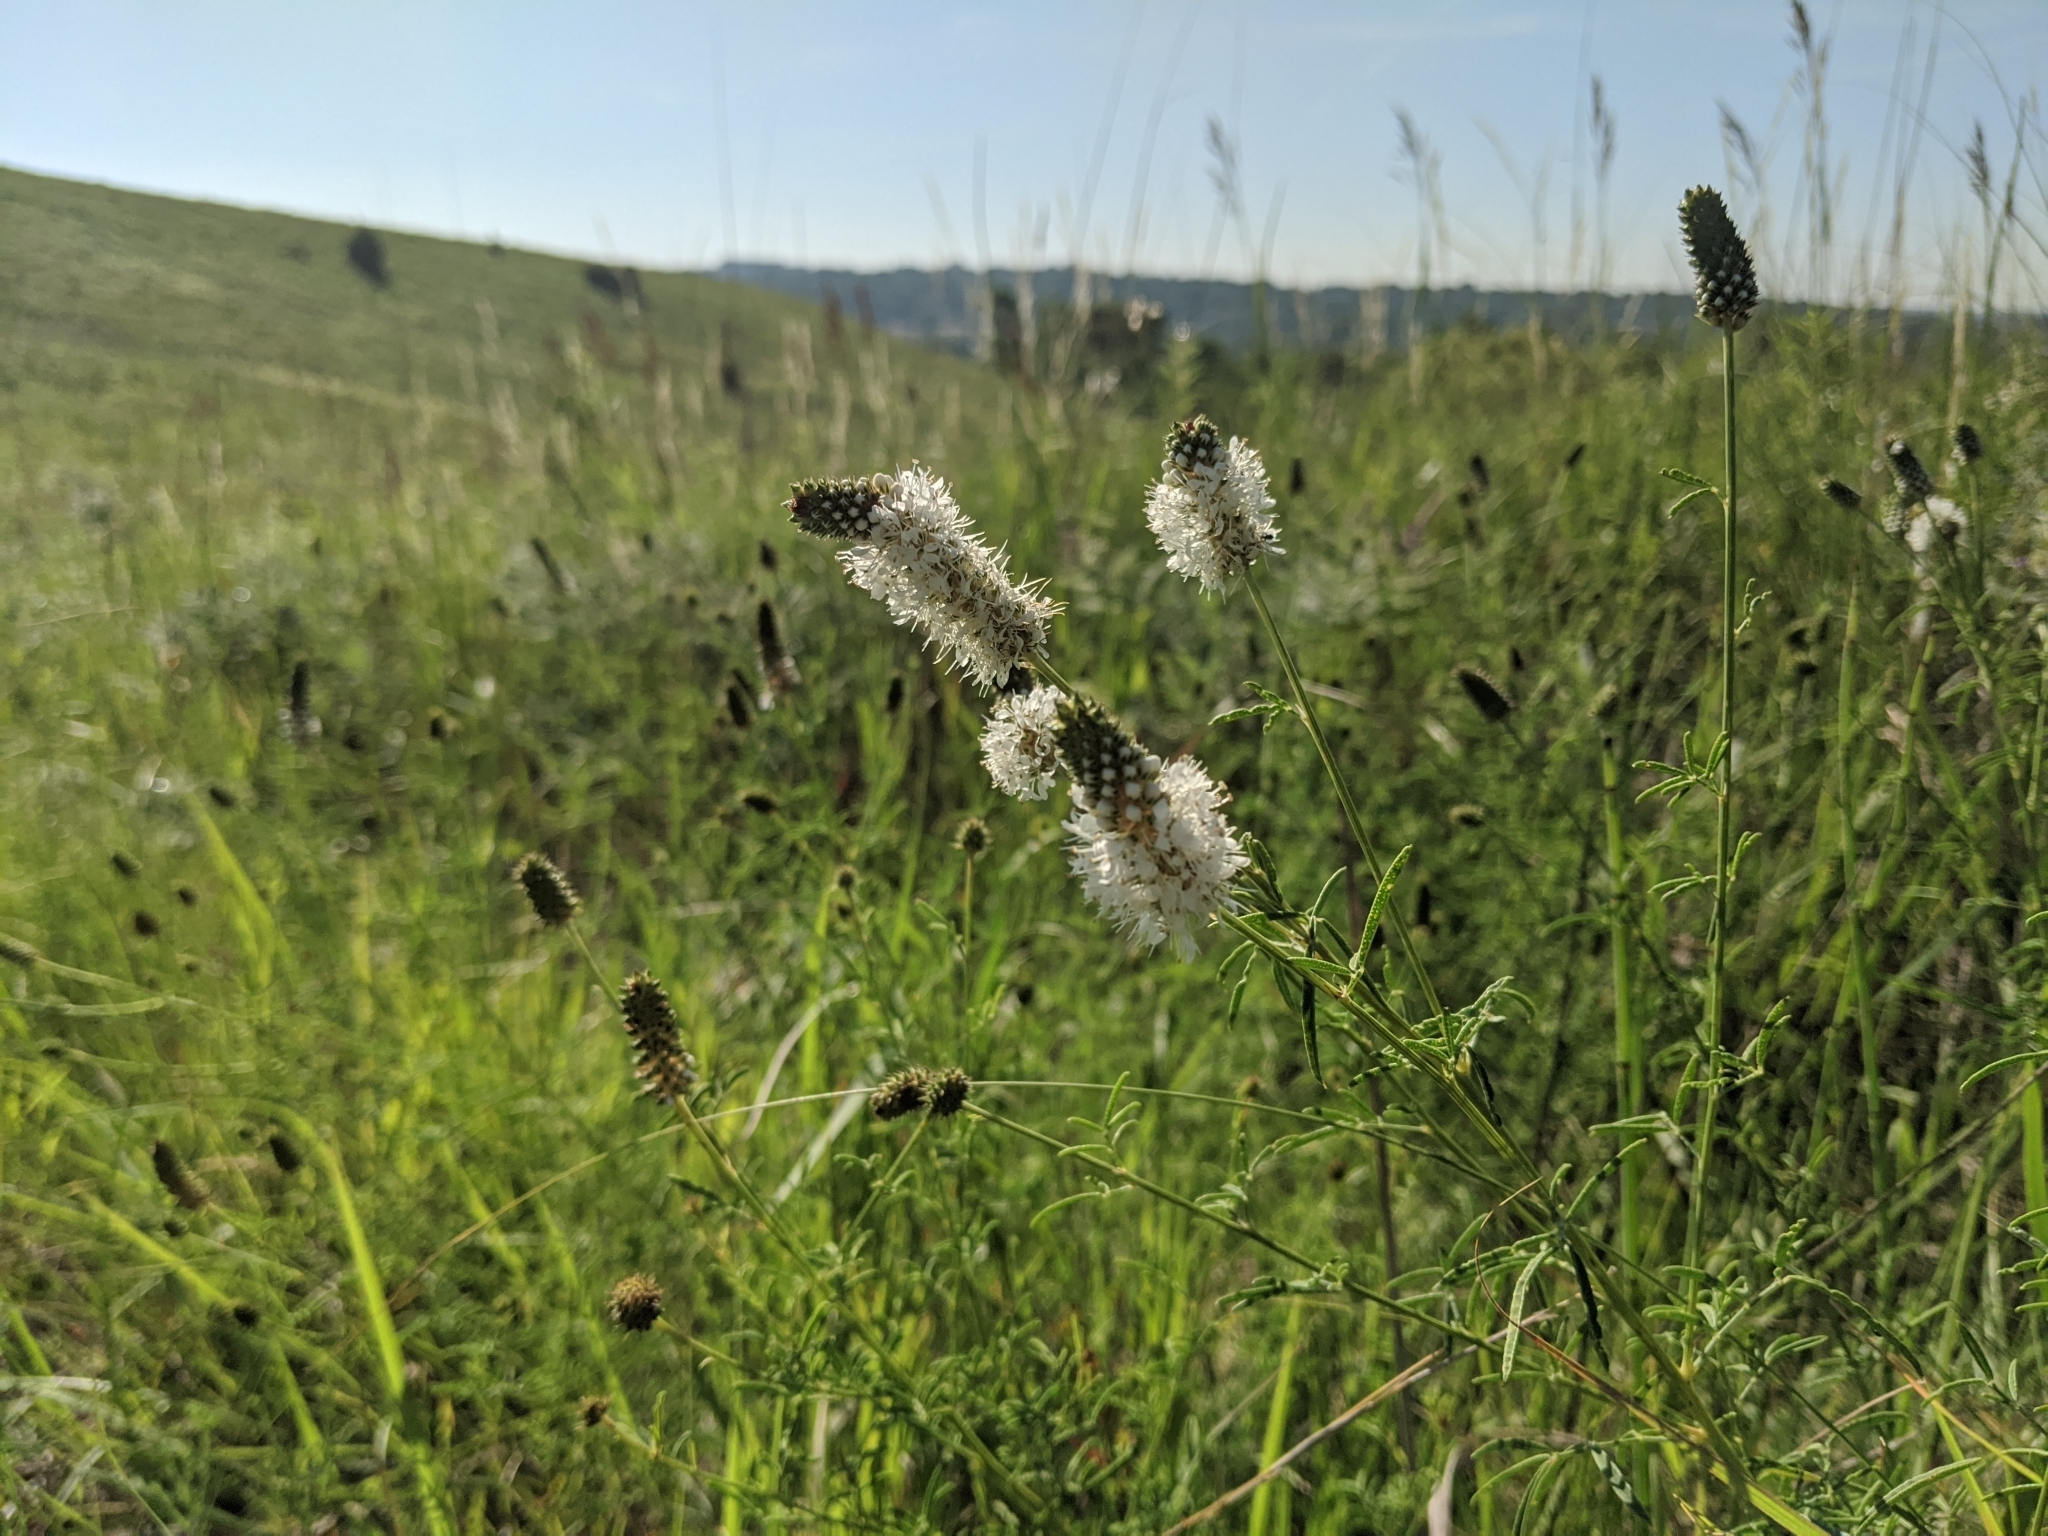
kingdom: Plantae
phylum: Tracheophyta
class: Magnoliopsida
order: Fabales
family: Fabaceae
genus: Dalea
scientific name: Dalea candida
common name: White prairie-clover
